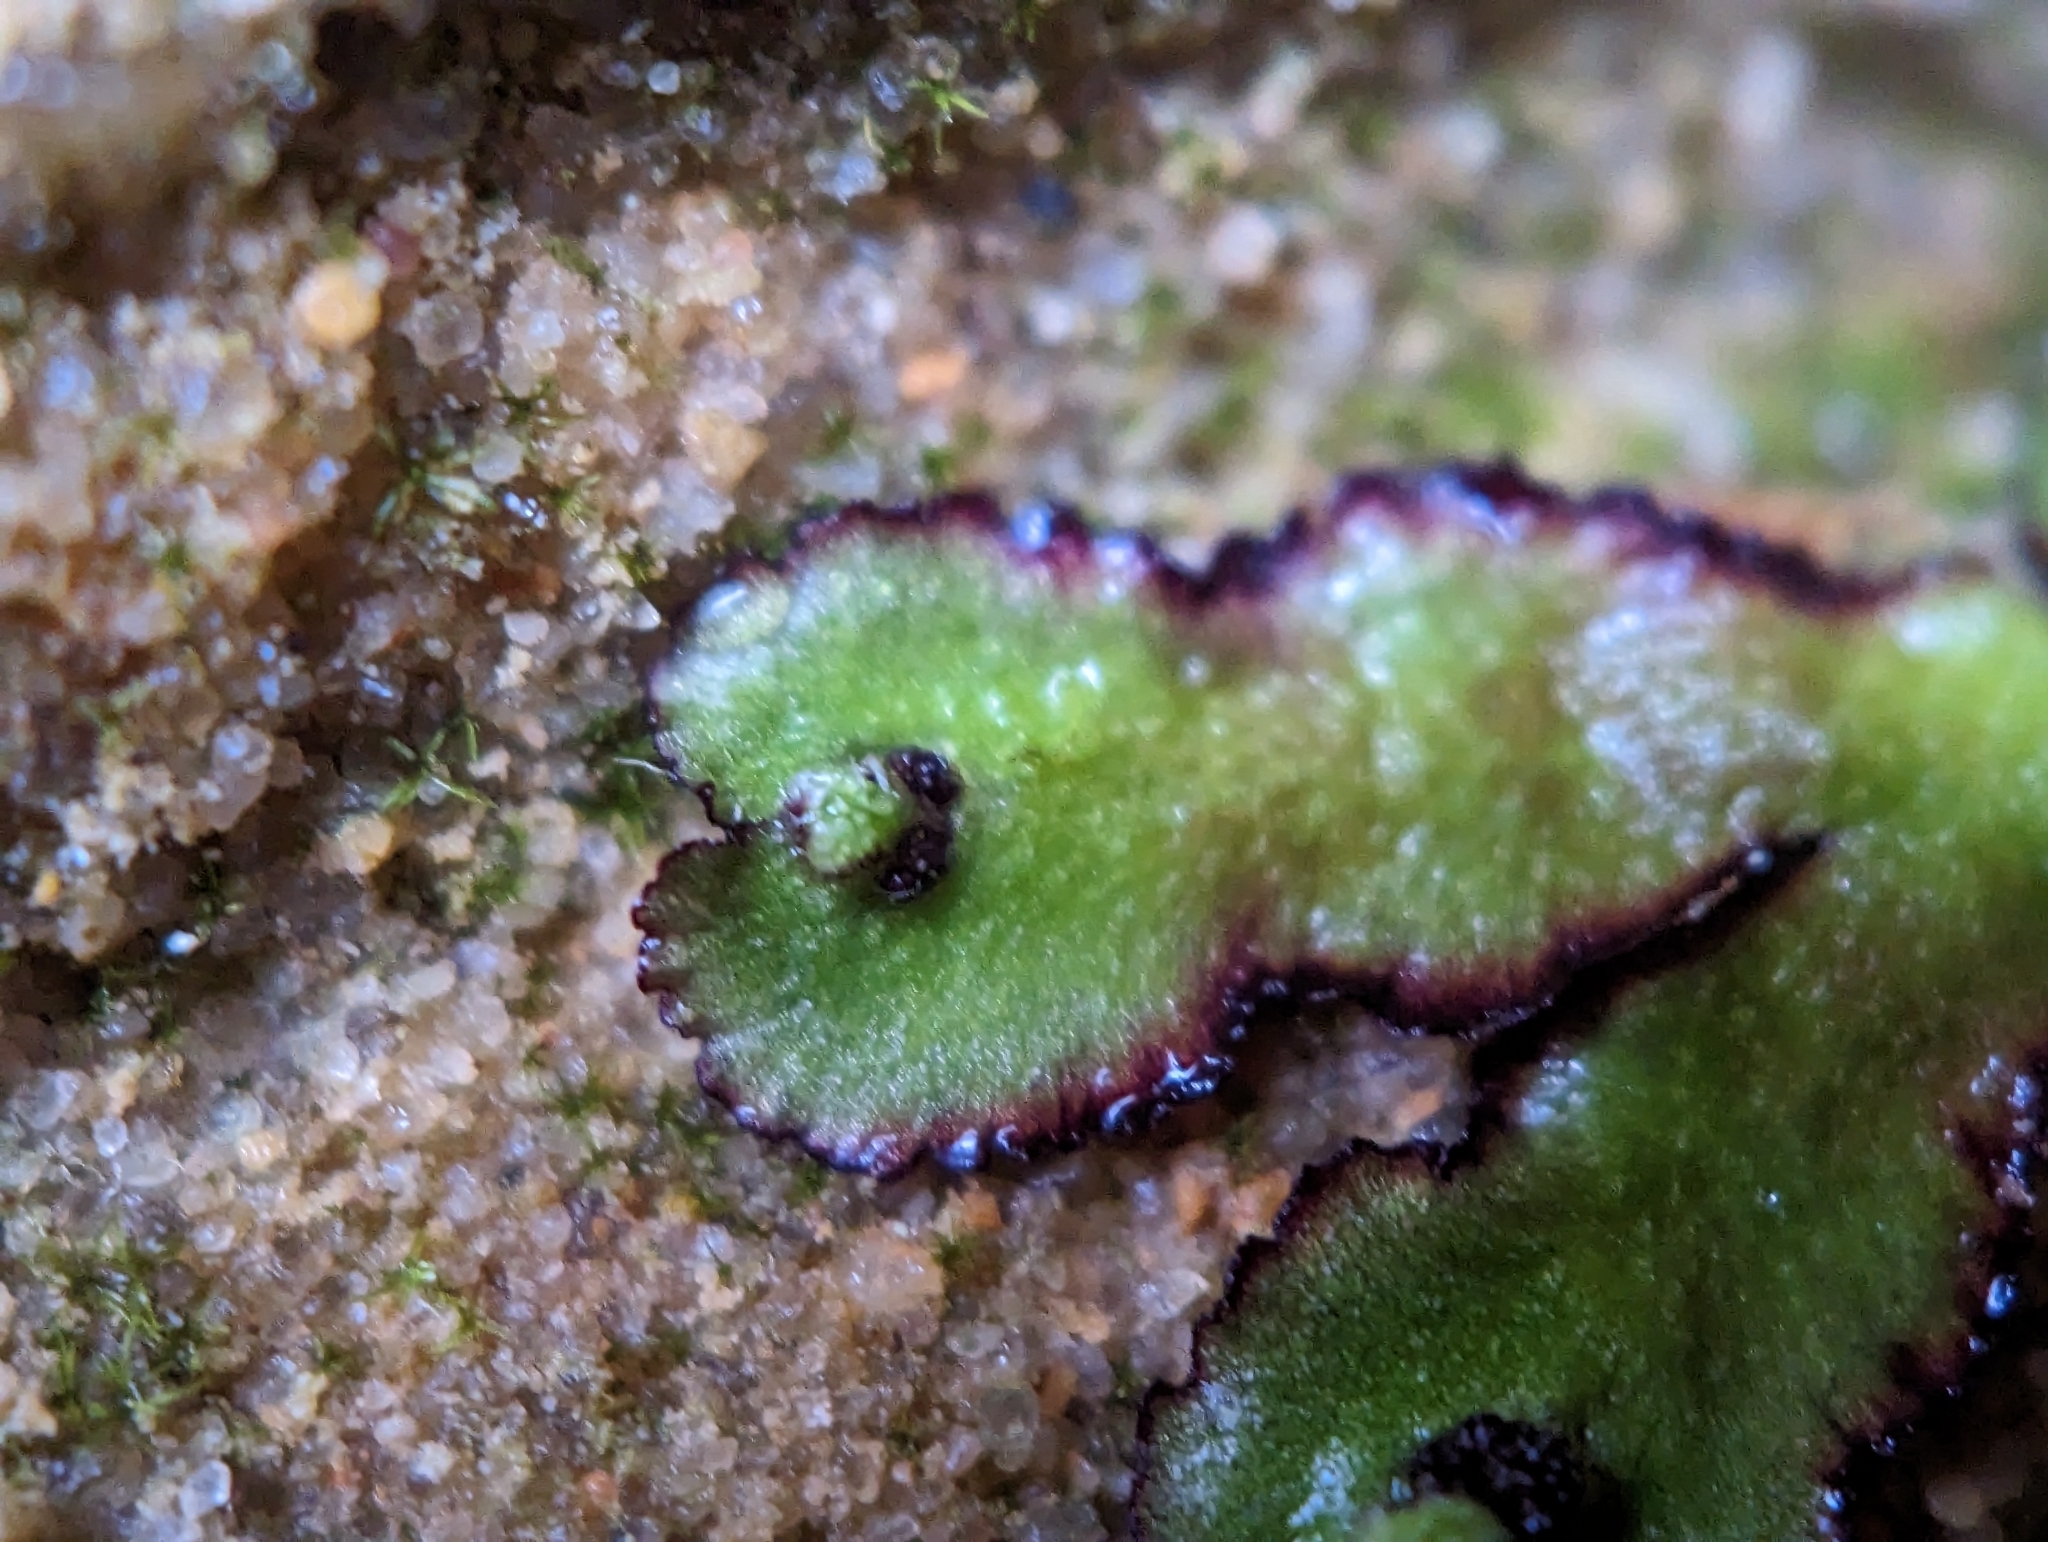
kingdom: Plantae
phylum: Marchantiophyta
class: Marchantiopsida
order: Marchantiales
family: Aytoniaceae
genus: Reboulia
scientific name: Reboulia hemisphaerica
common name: Purple-margined liverwort
